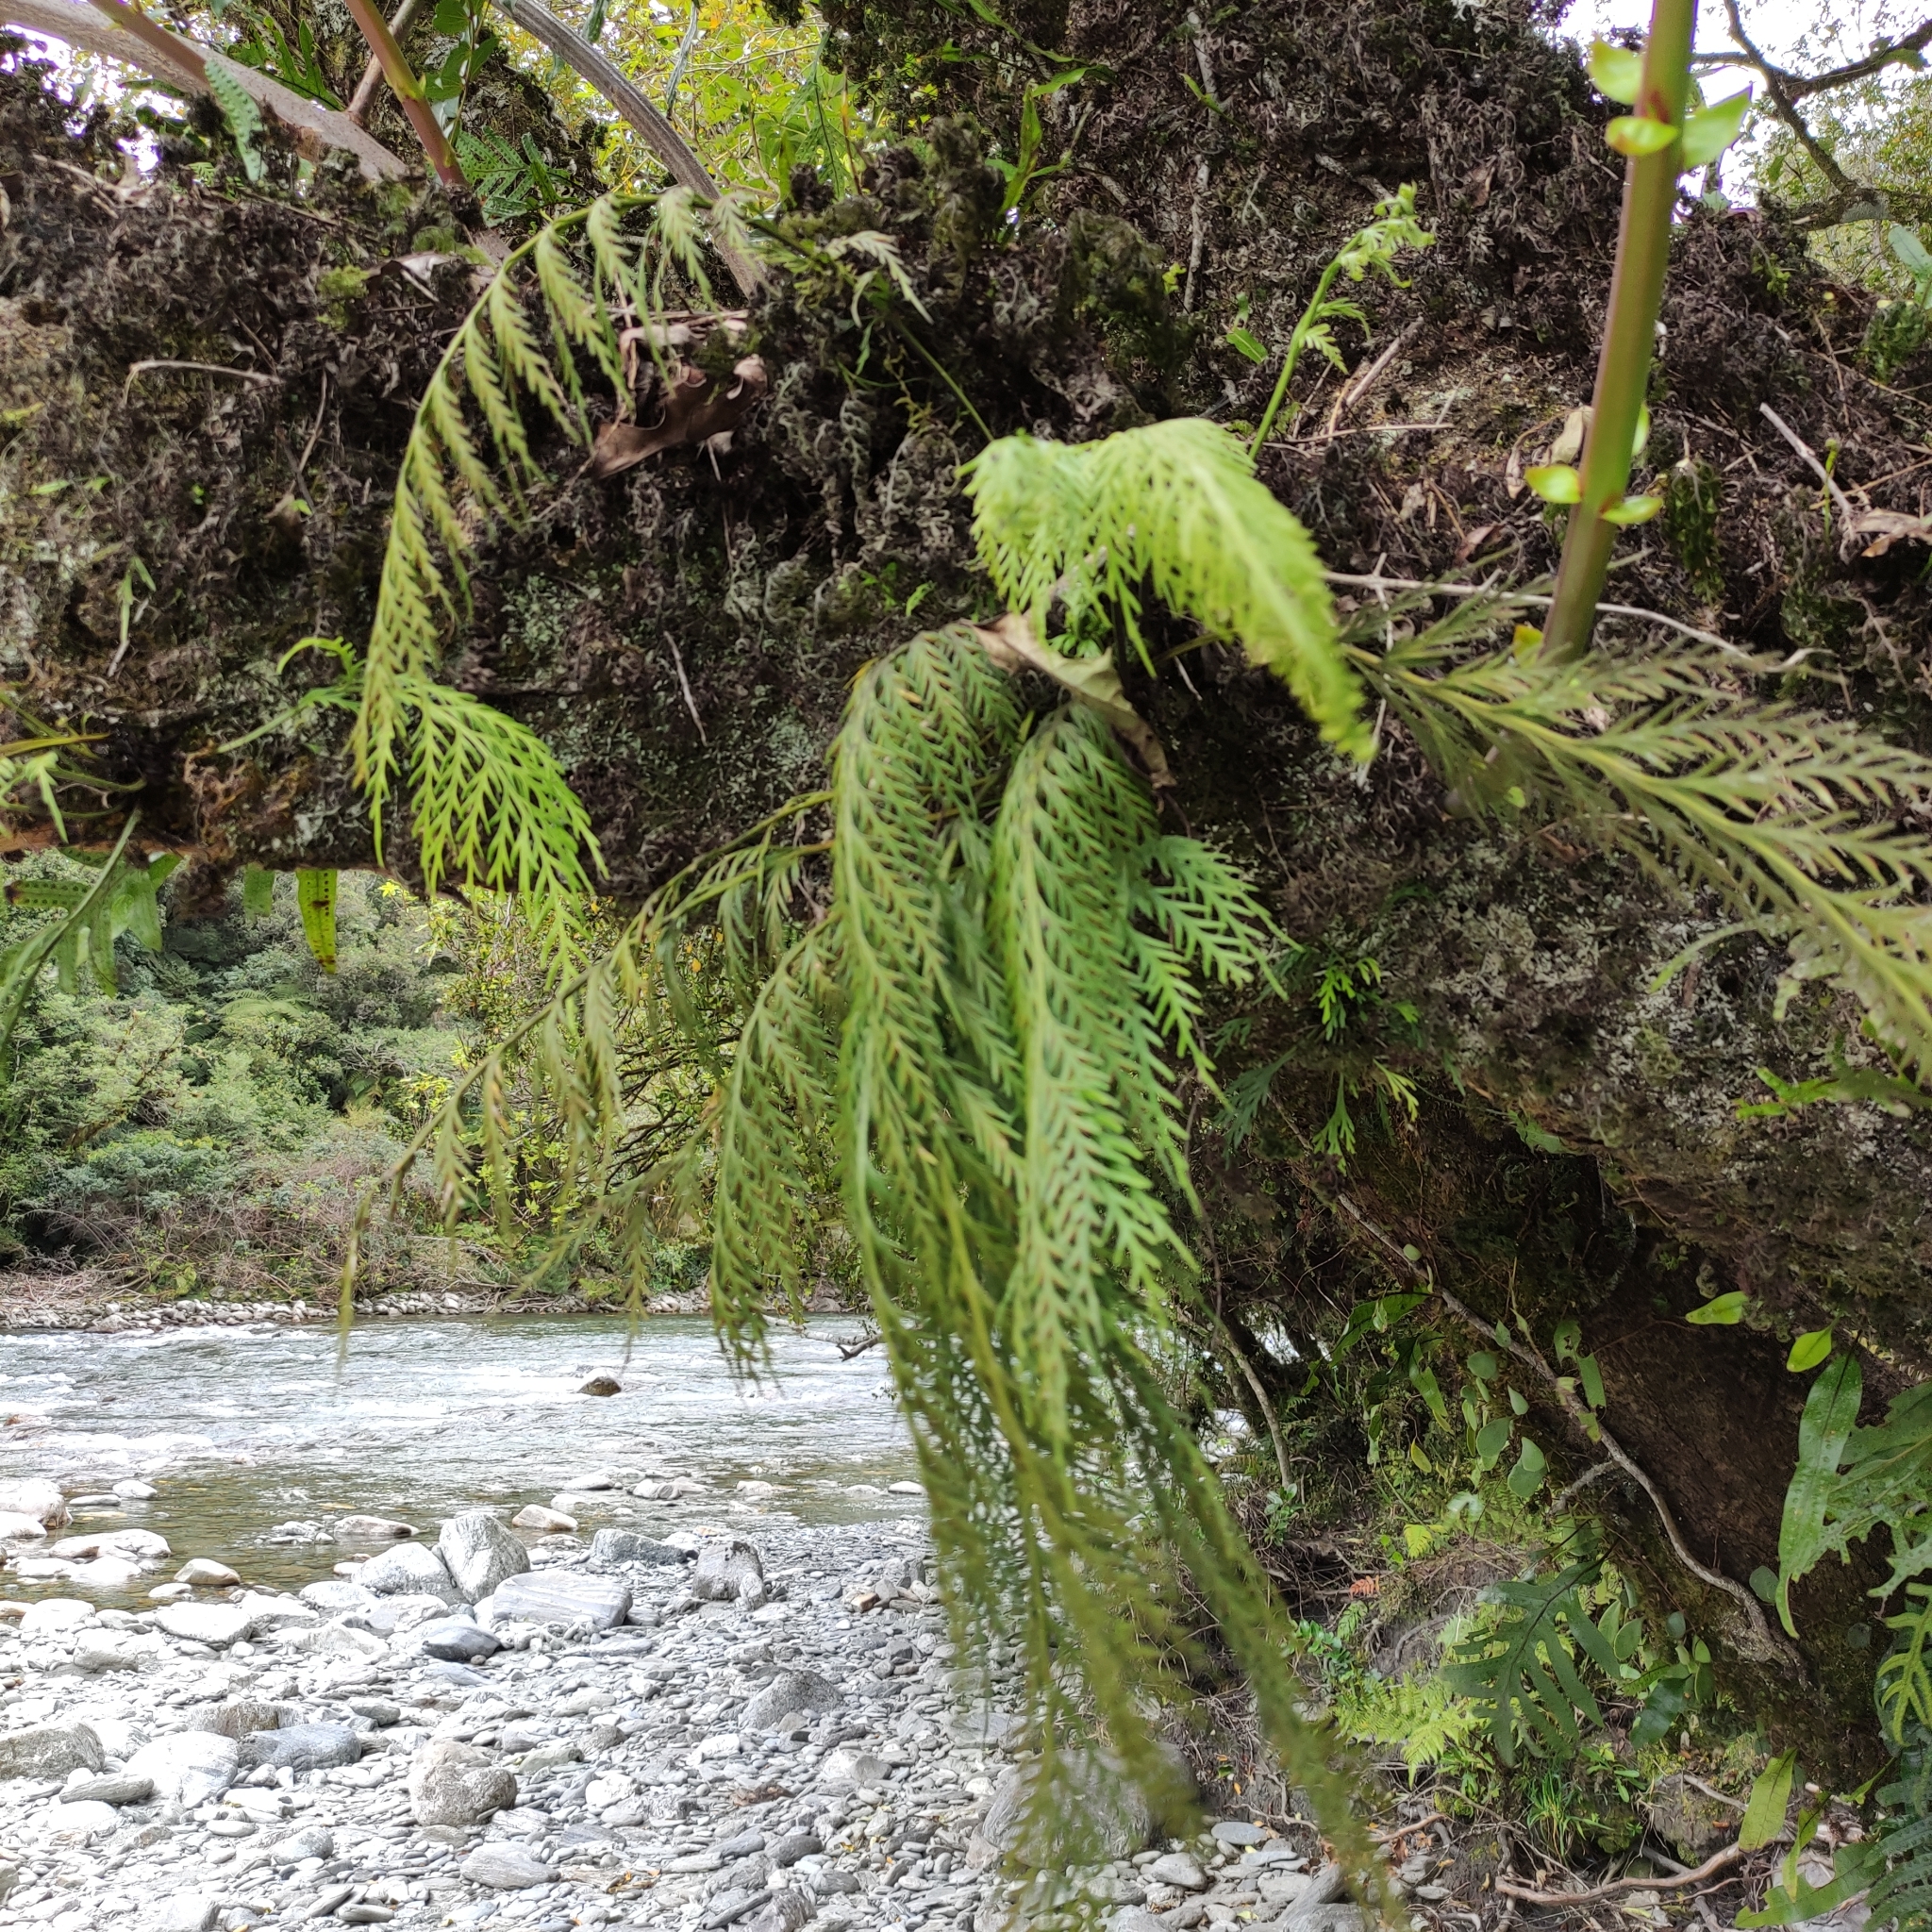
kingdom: Plantae
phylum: Tracheophyta
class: Polypodiopsida
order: Polypodiales
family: Aspleniaceae
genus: Asplenium
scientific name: Asplenium flaccidum
